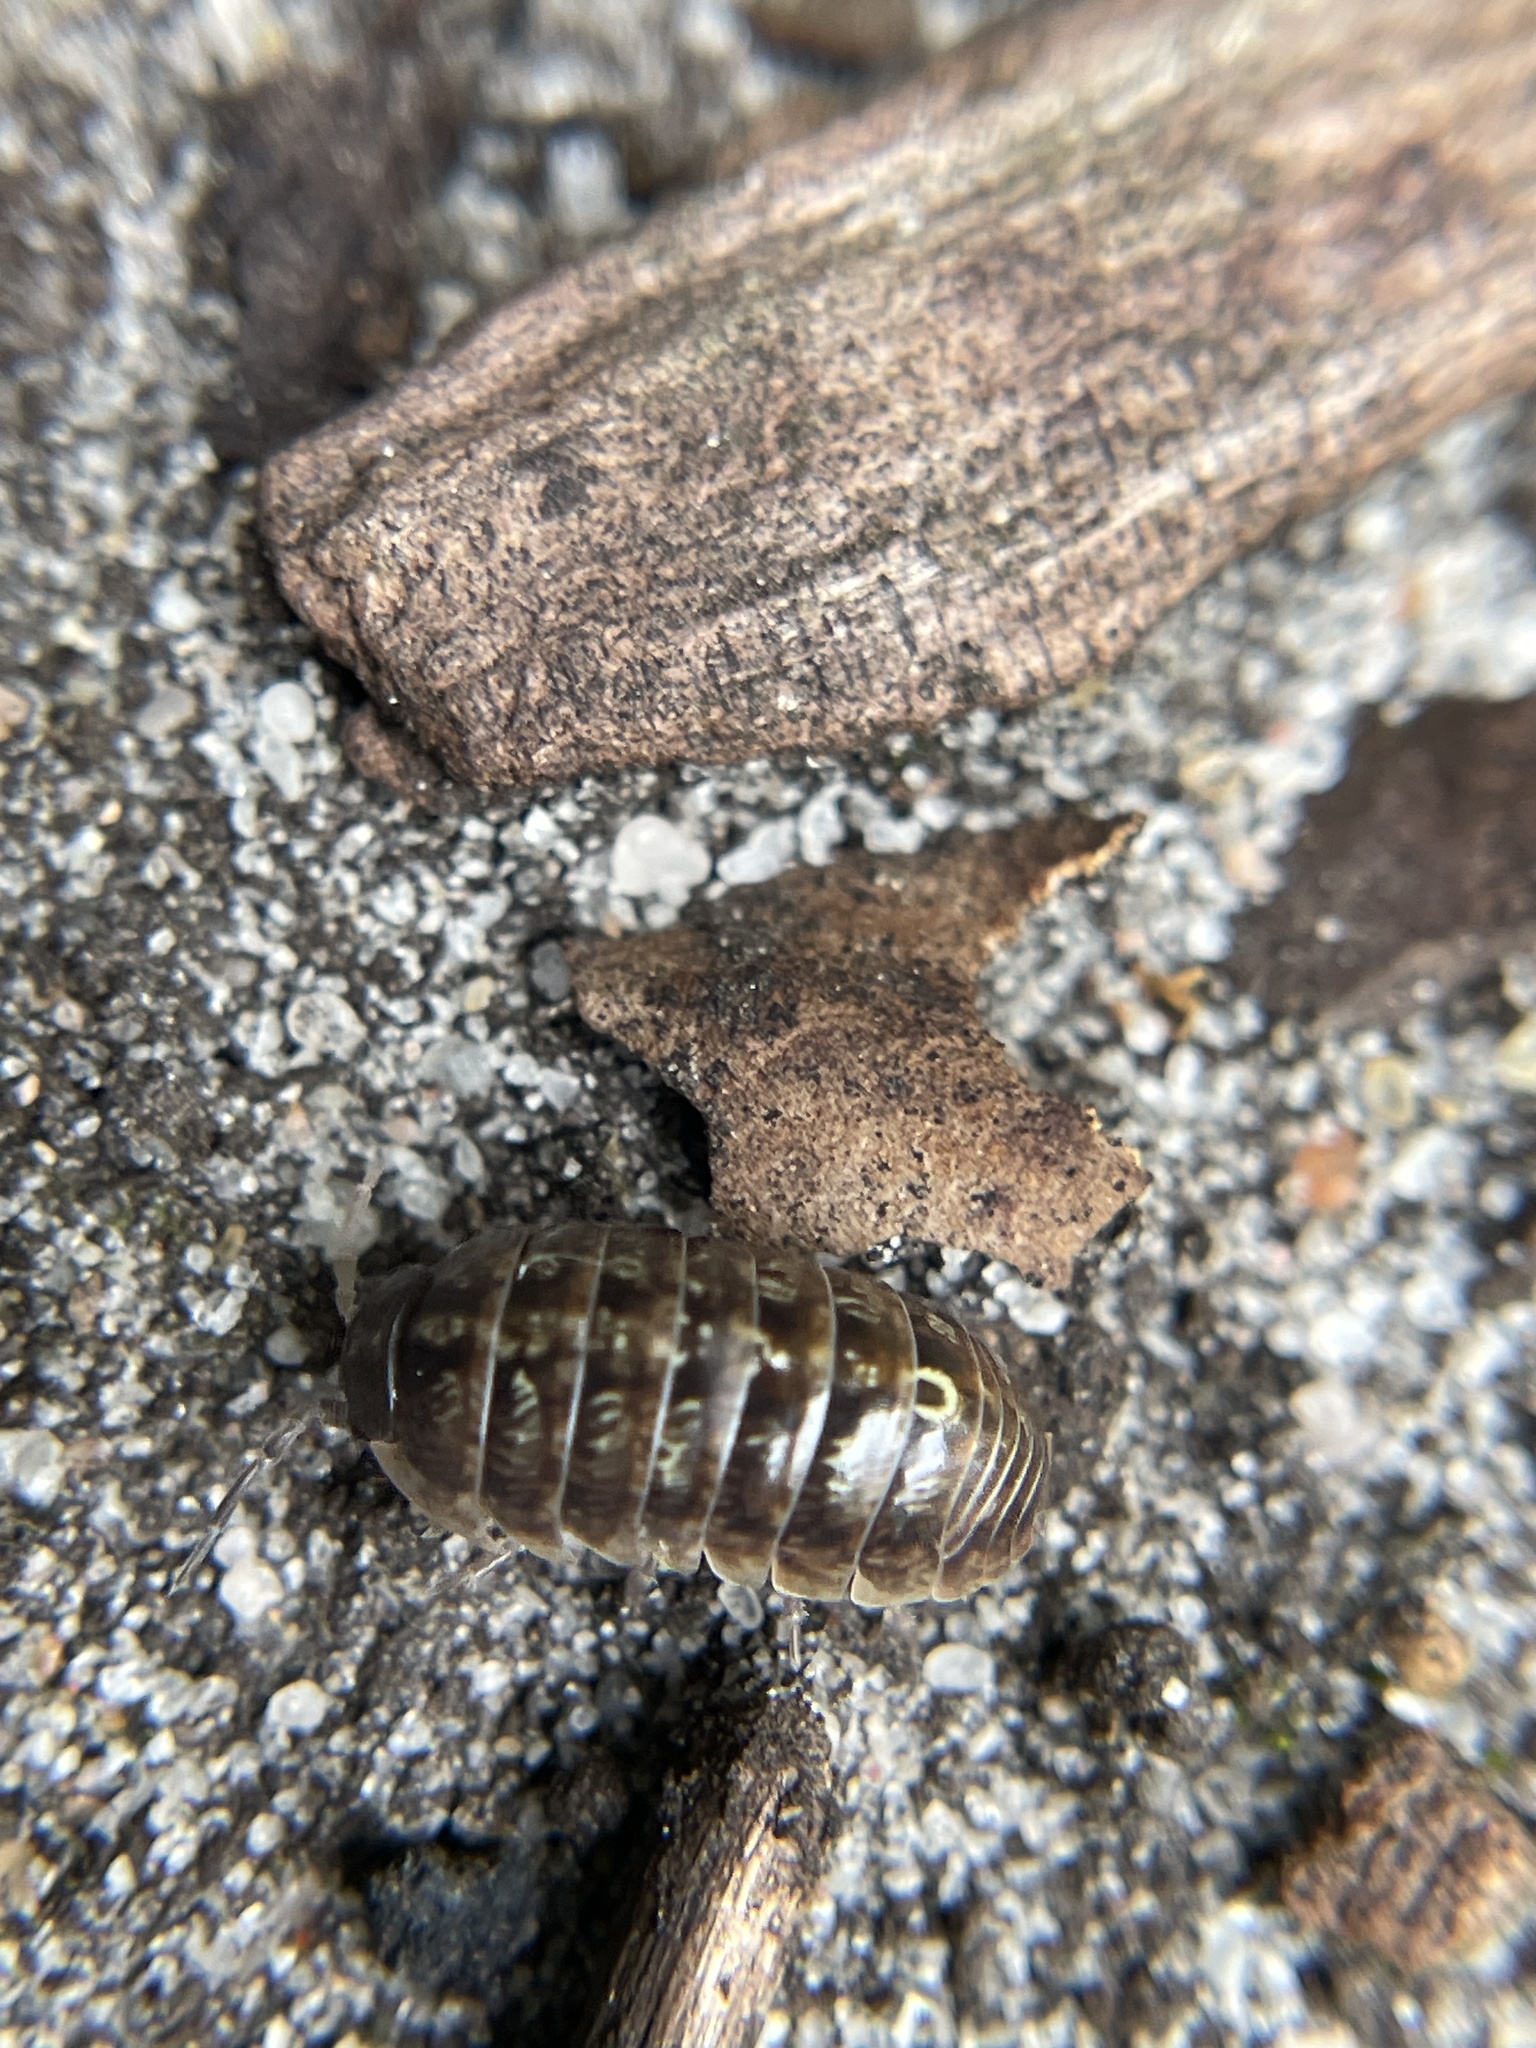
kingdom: Animalia
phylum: Arthropoda
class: Malacostraca
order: Isopoda
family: Armadillidiidae
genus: Armadillidium
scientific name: Armadillidium vulgare
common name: Common pill woodlouse
